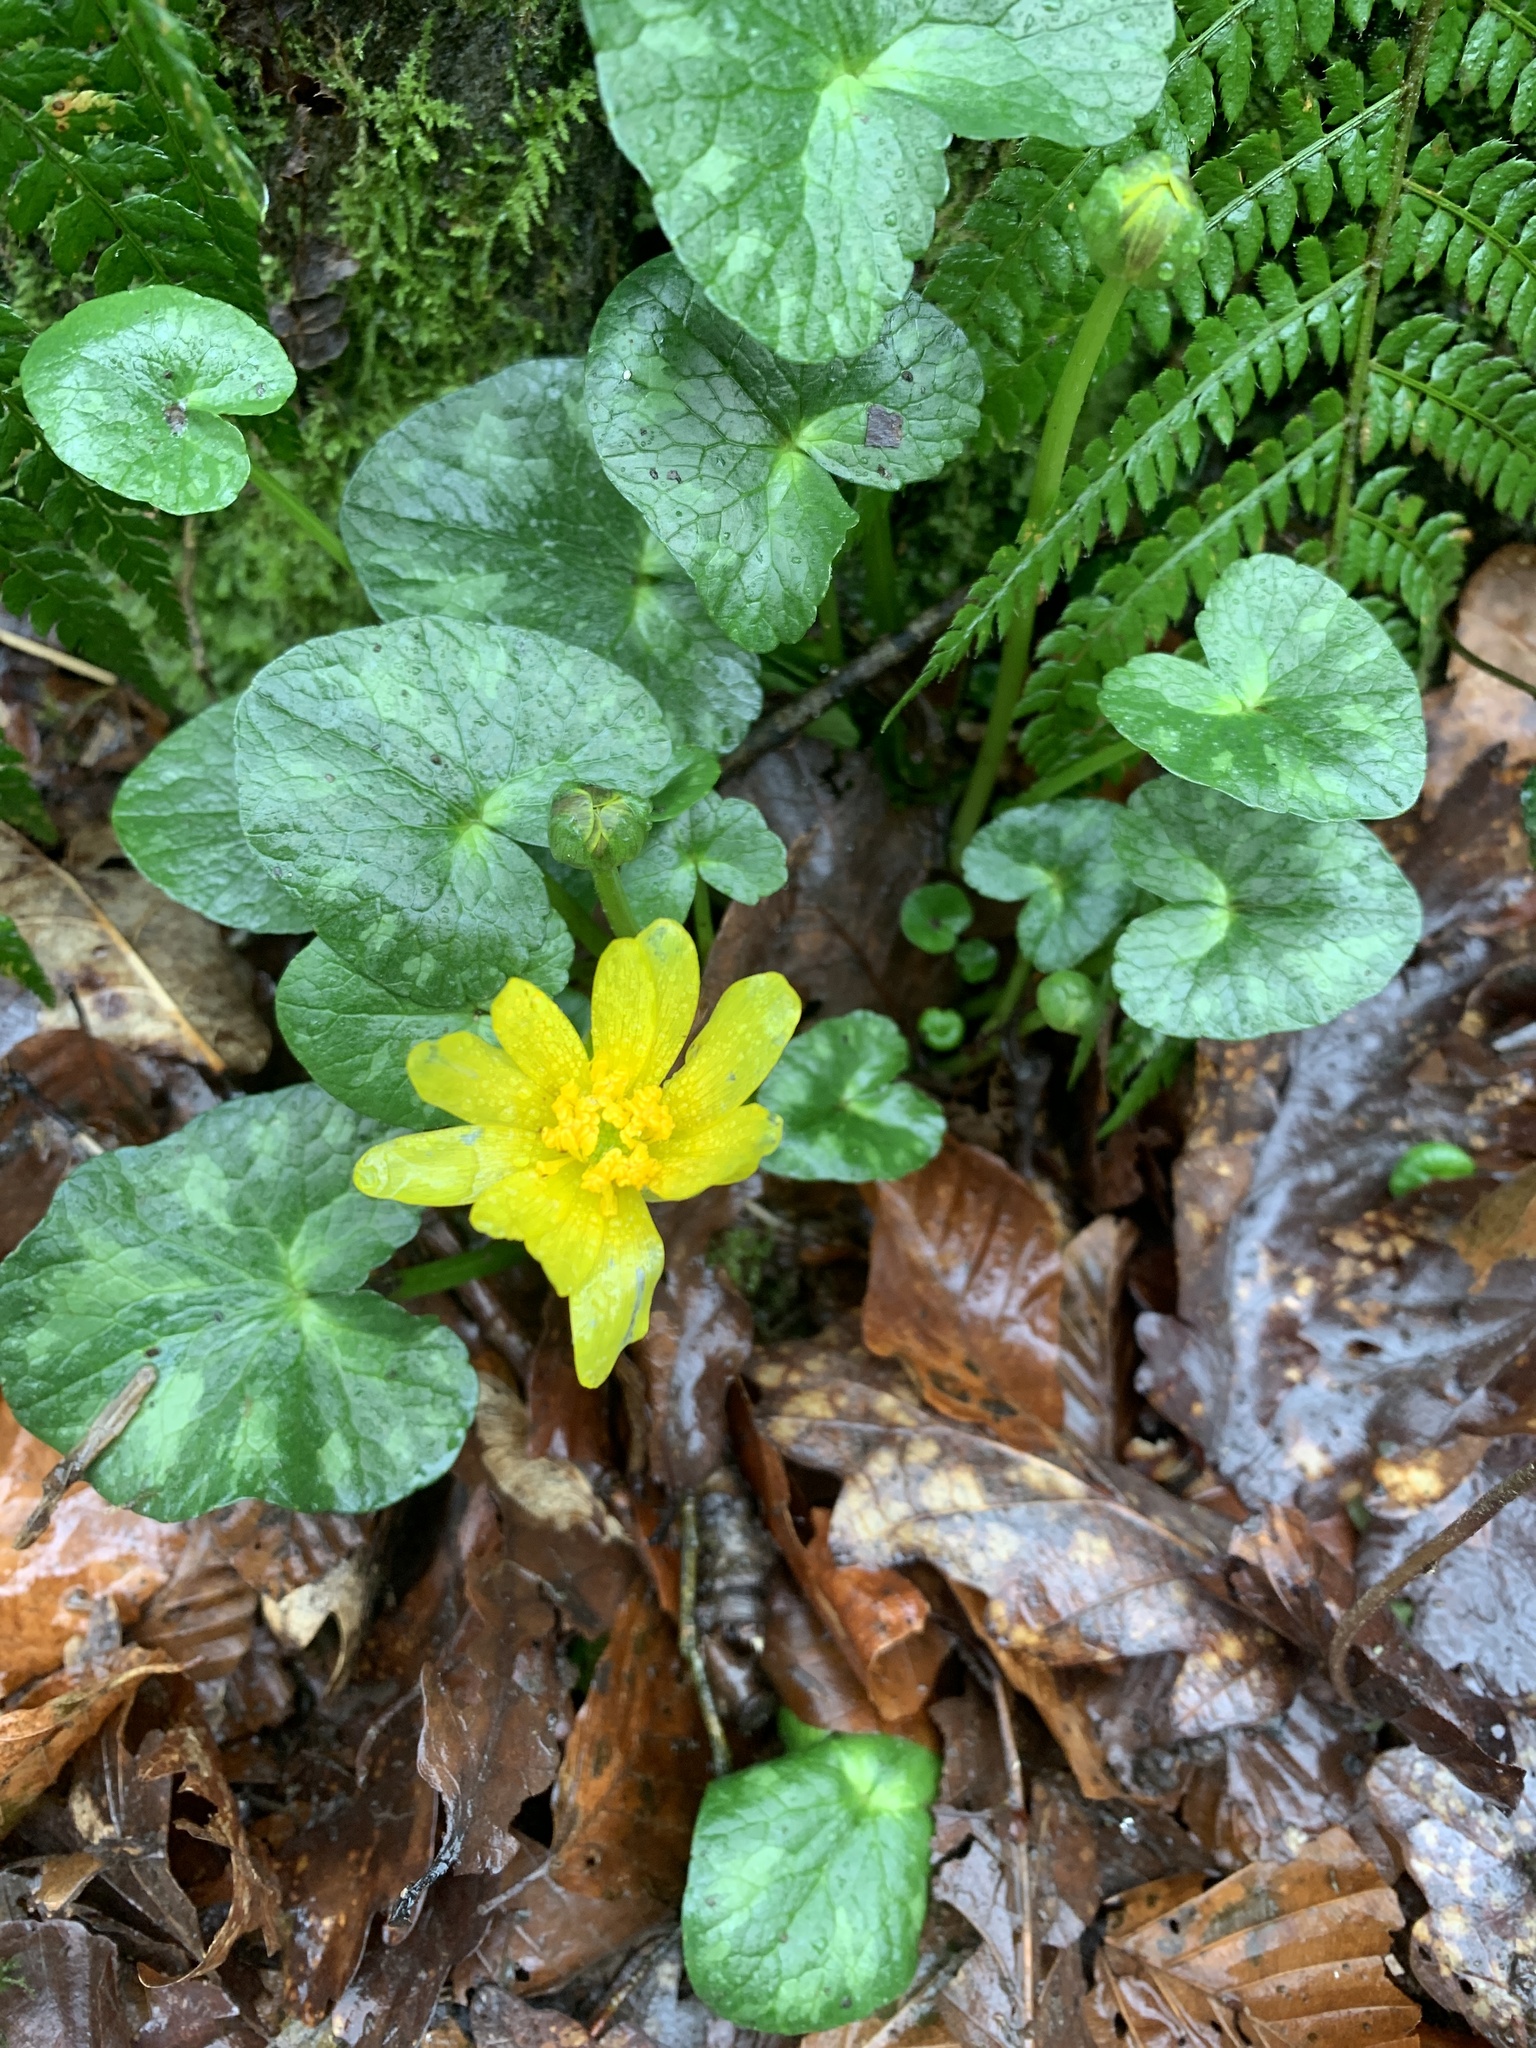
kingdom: Plantae
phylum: Tracheophyta
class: Magnoliopsida
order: Ranunculales
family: Ranunculaceae
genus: Ficaria
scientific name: Ficaria verna
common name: Lesser celandine
